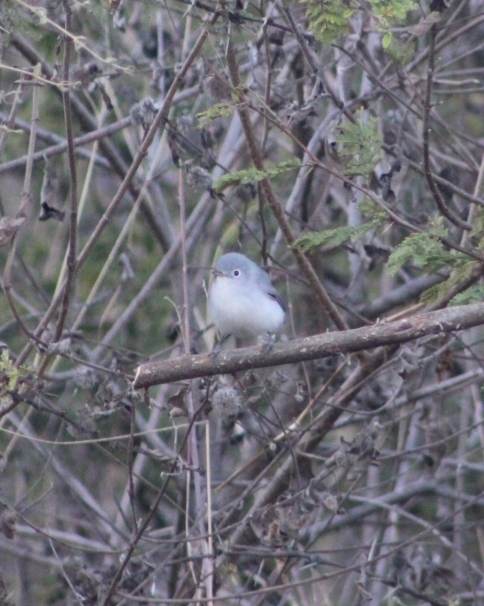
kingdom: Animalia
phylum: Chordata
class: Aves
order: Passeriformes
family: Polioptilidae
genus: Polioptila
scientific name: Polioptila caerulea
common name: Blue-gray gnatcatcher
